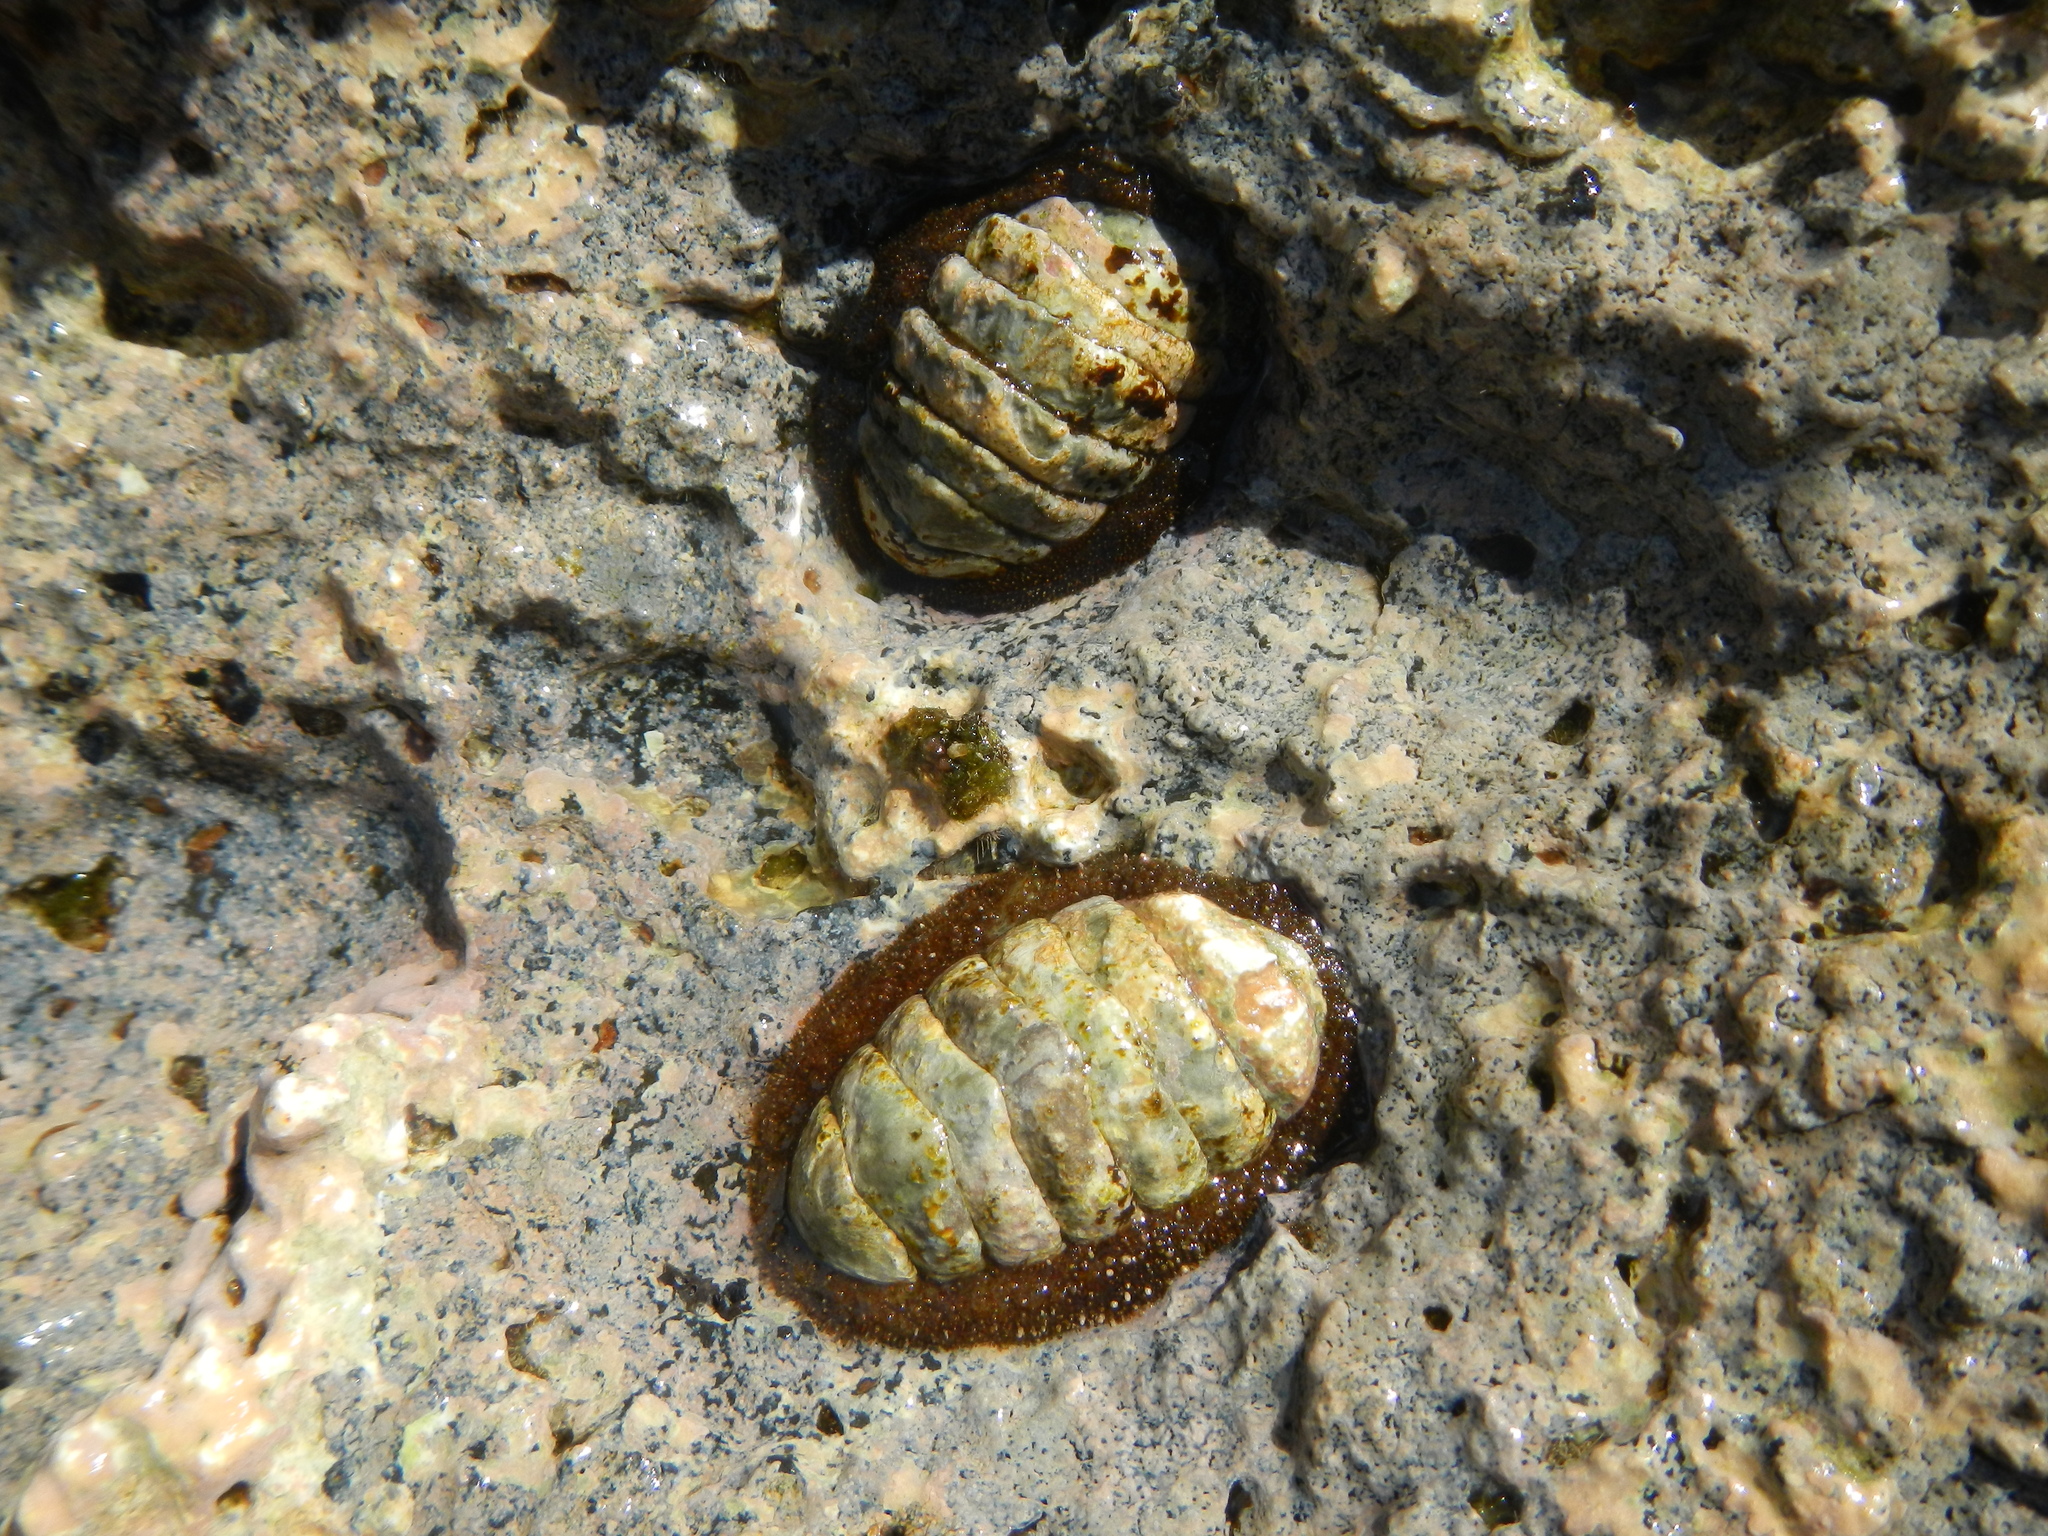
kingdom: Animalia
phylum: Mollusca
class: Polyplacophora
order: Chitonida
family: Mopaliidae
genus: Plaxiphora
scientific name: Plaxiphora mercatoris
